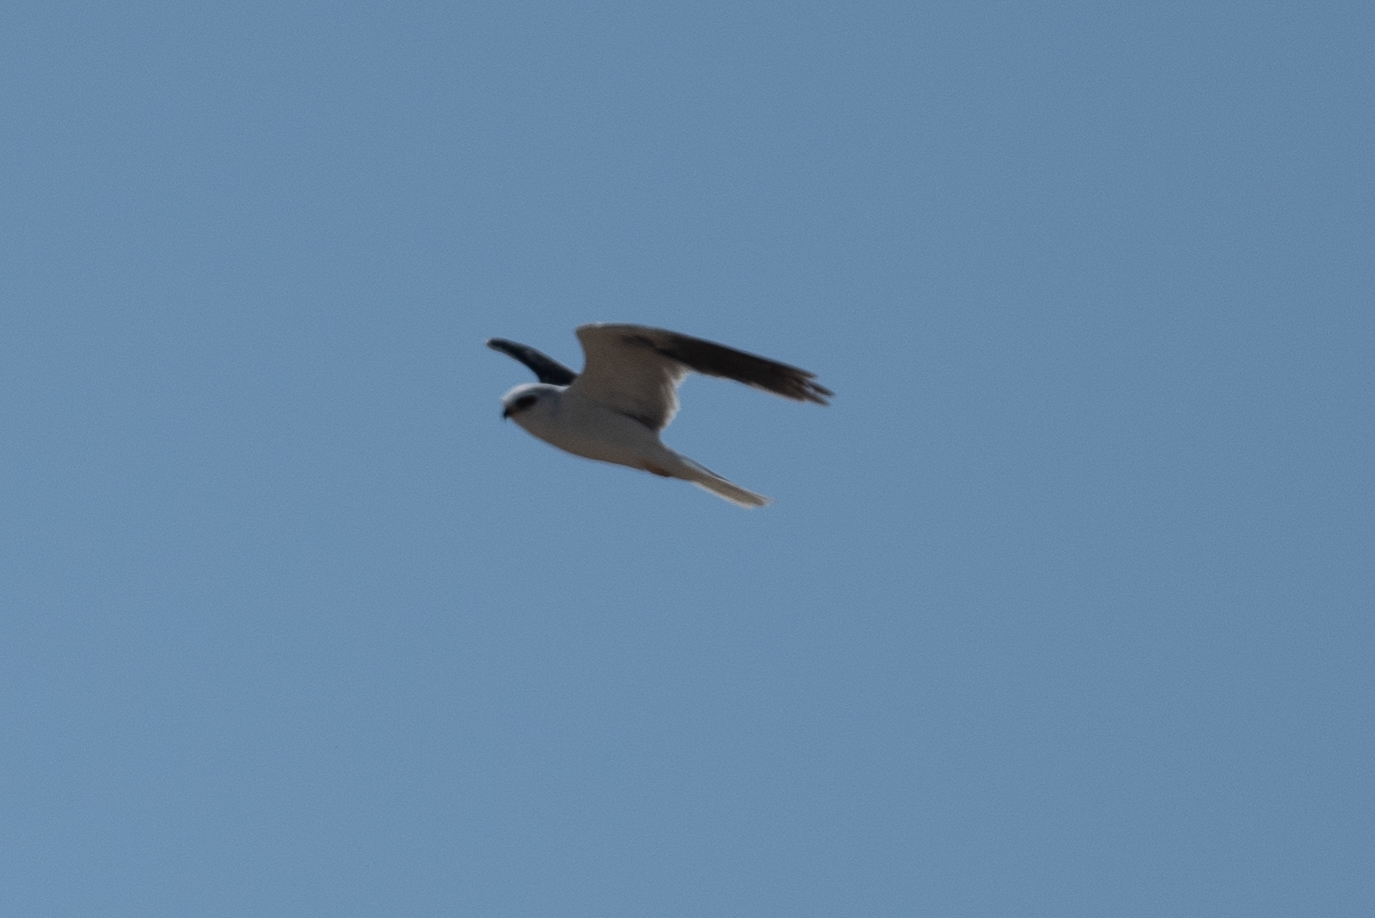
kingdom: Animalia
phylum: Chordata
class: Aves
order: Accipitriformes
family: Accipitridae
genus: Elanus
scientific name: Elanus leucurus
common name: White-tailed kite
